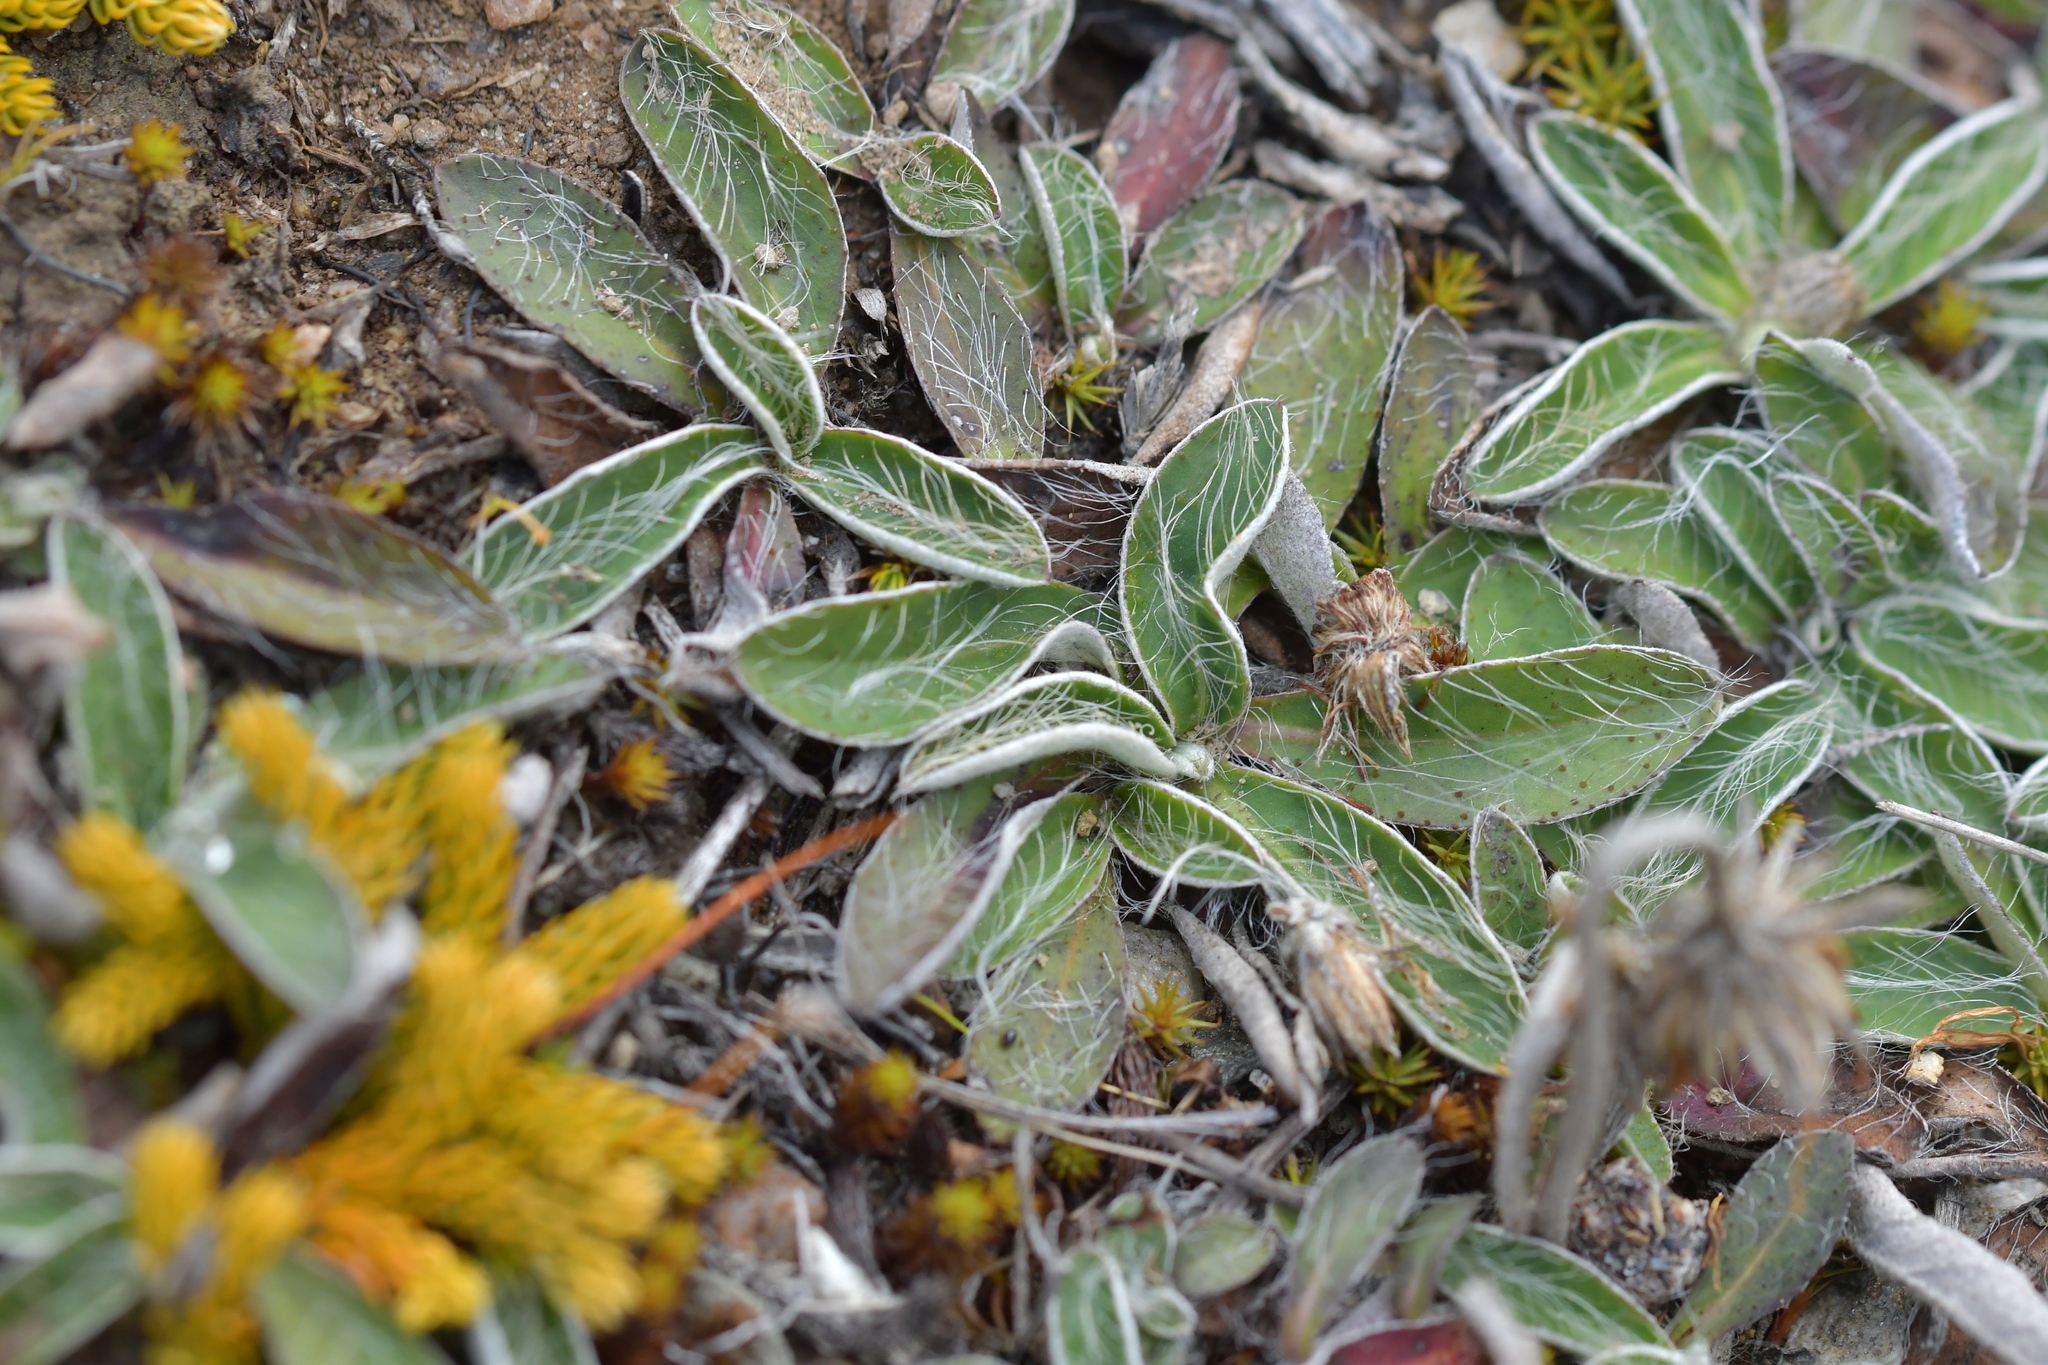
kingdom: Plantae
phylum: Tracheophyta
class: Magnoliopsida
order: Asterales
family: Asteraceae
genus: Pilosella
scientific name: Pilosella officinarum
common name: Mouse-ear hawkweed
